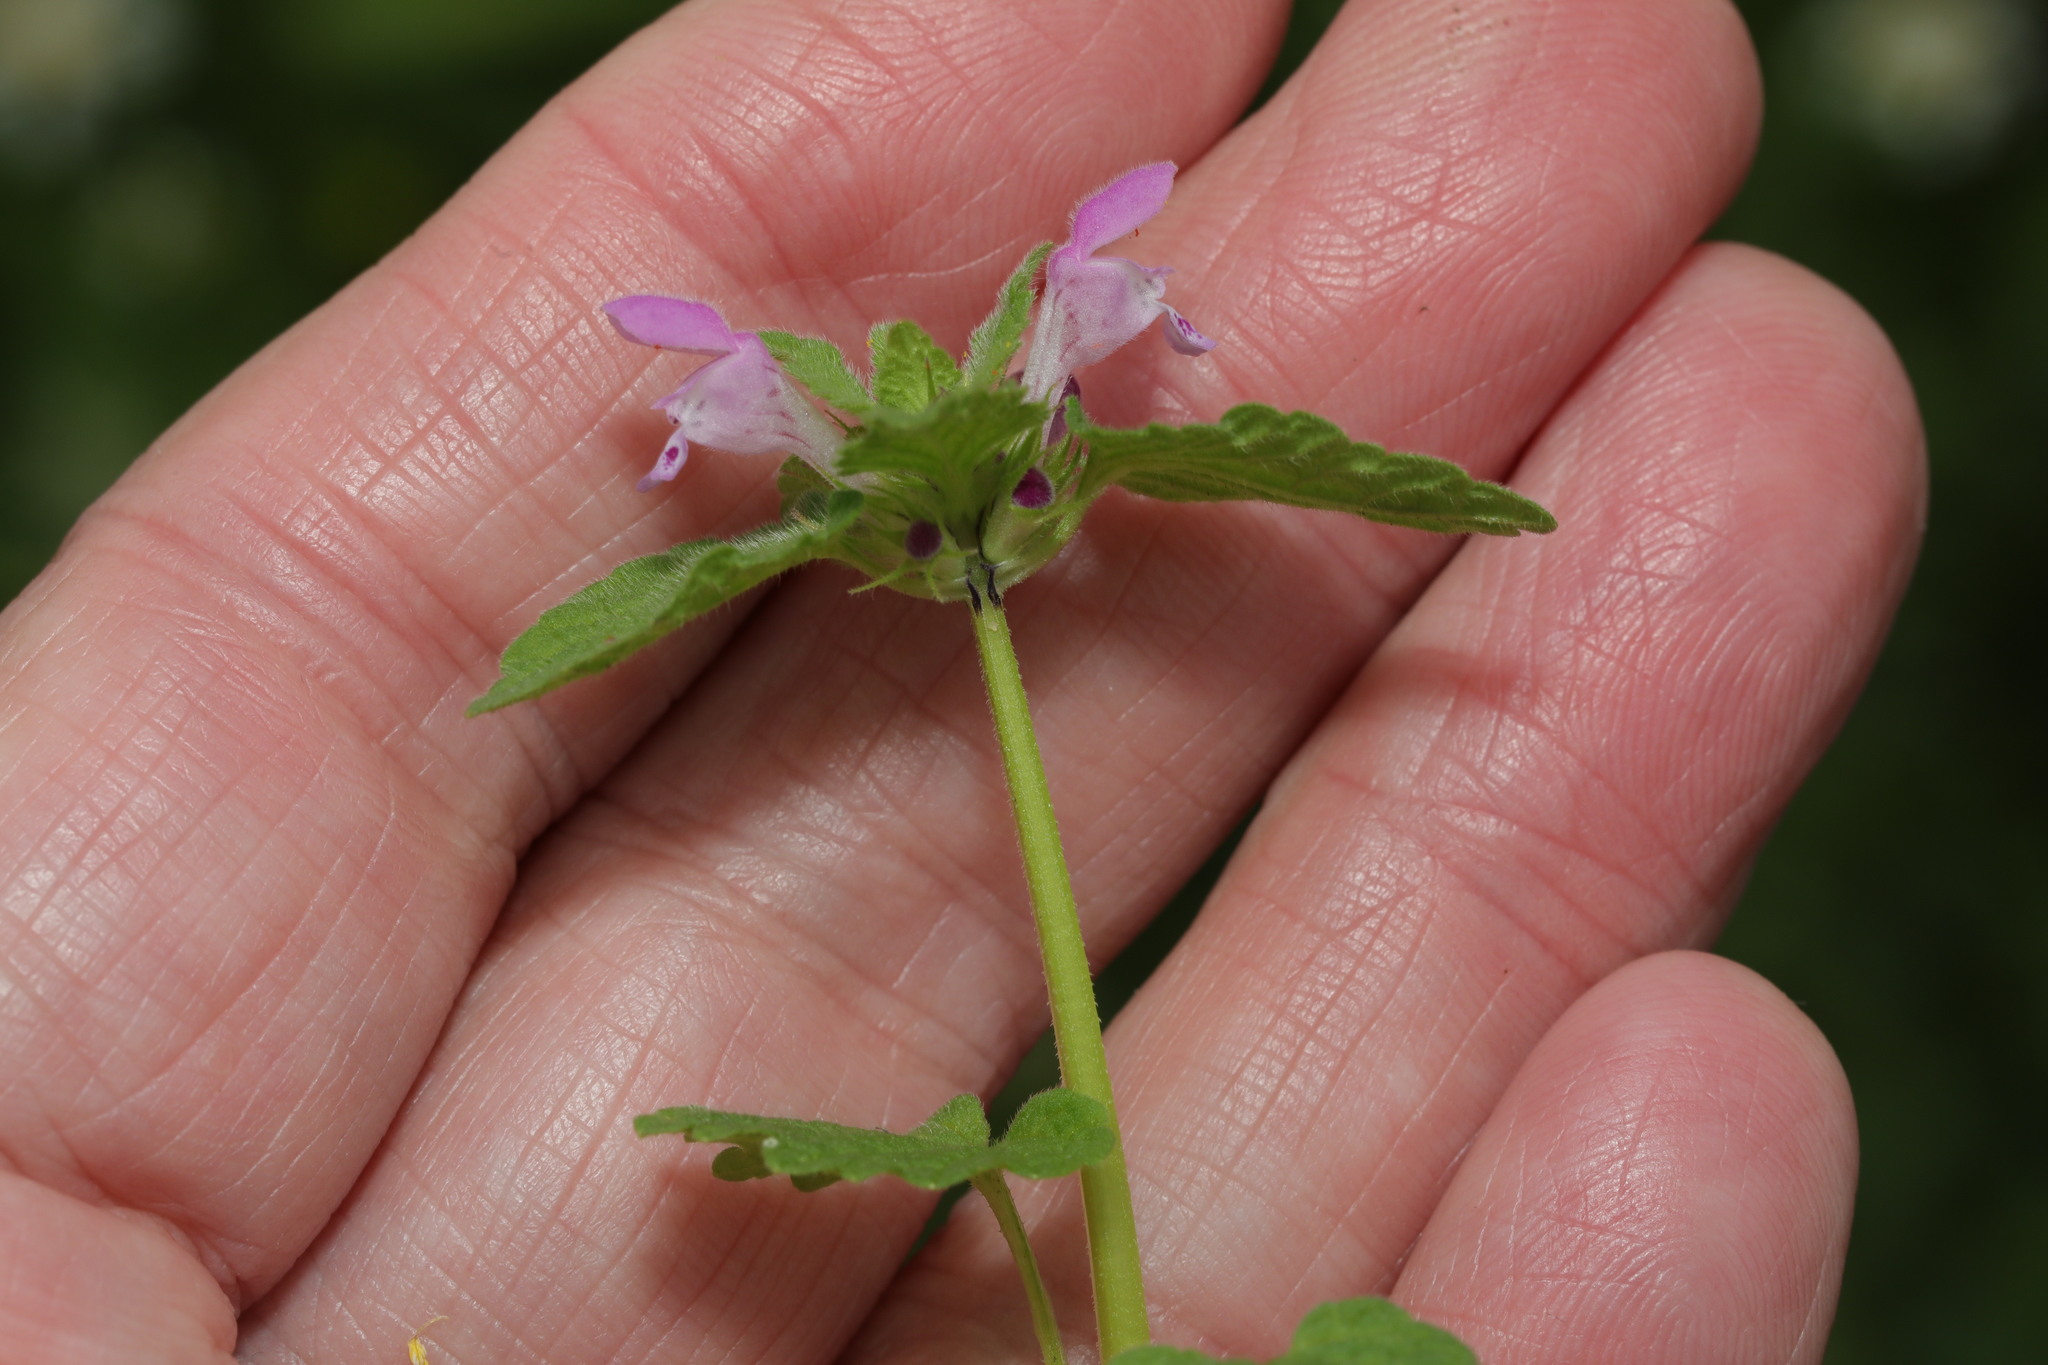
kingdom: Plantae
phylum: Tracheophyta
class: Magnoliopsida
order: Lamiales
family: Lamiaceae
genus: Lamium
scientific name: Lamium purpureum
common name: Red dead-nettle
